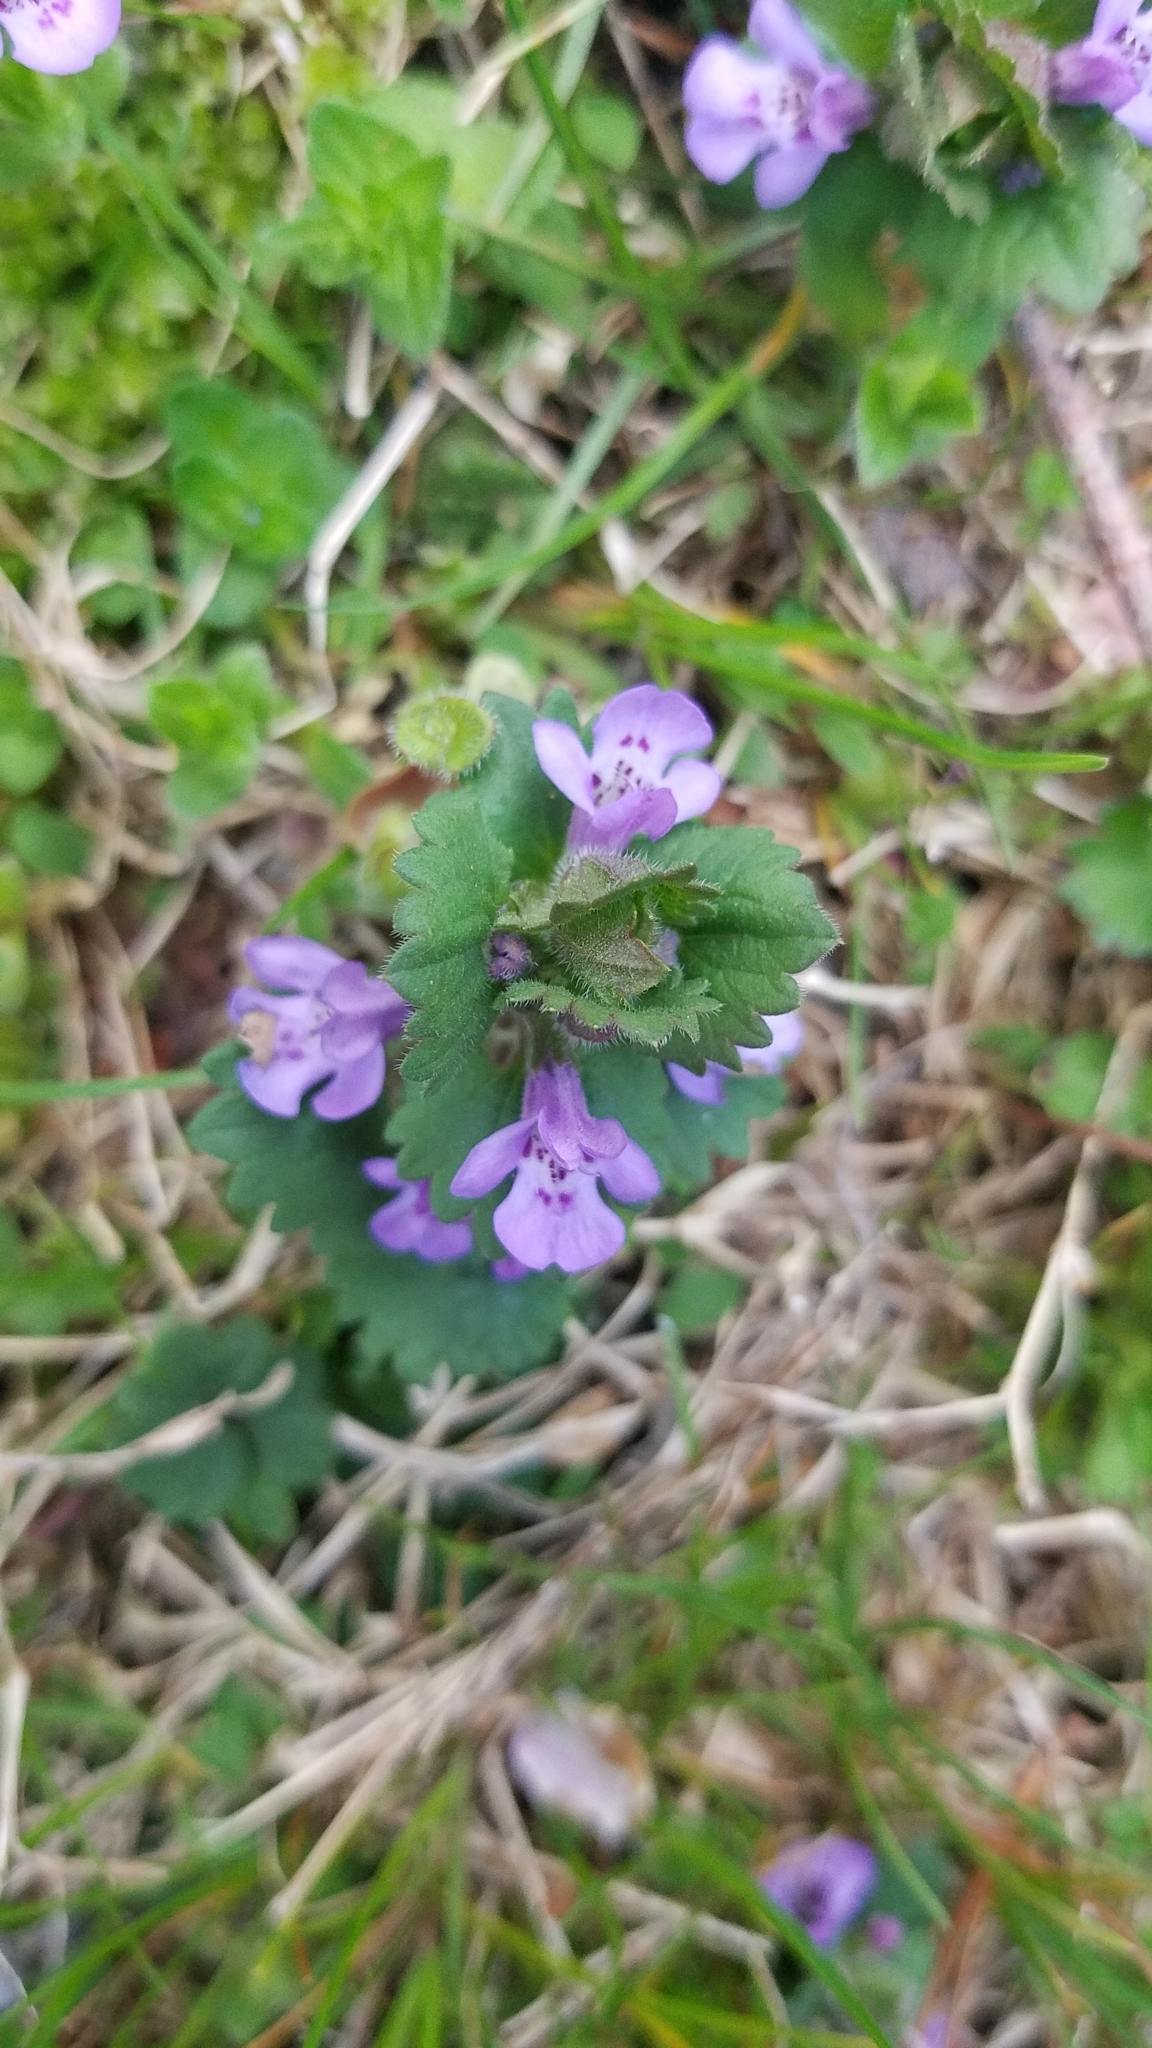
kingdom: Plantae
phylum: Tracheophyta
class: Magnoliopsida
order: Lamiales
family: Lamiaceae
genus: Glechoma
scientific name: Glechoma hederacea
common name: Ground ivy
